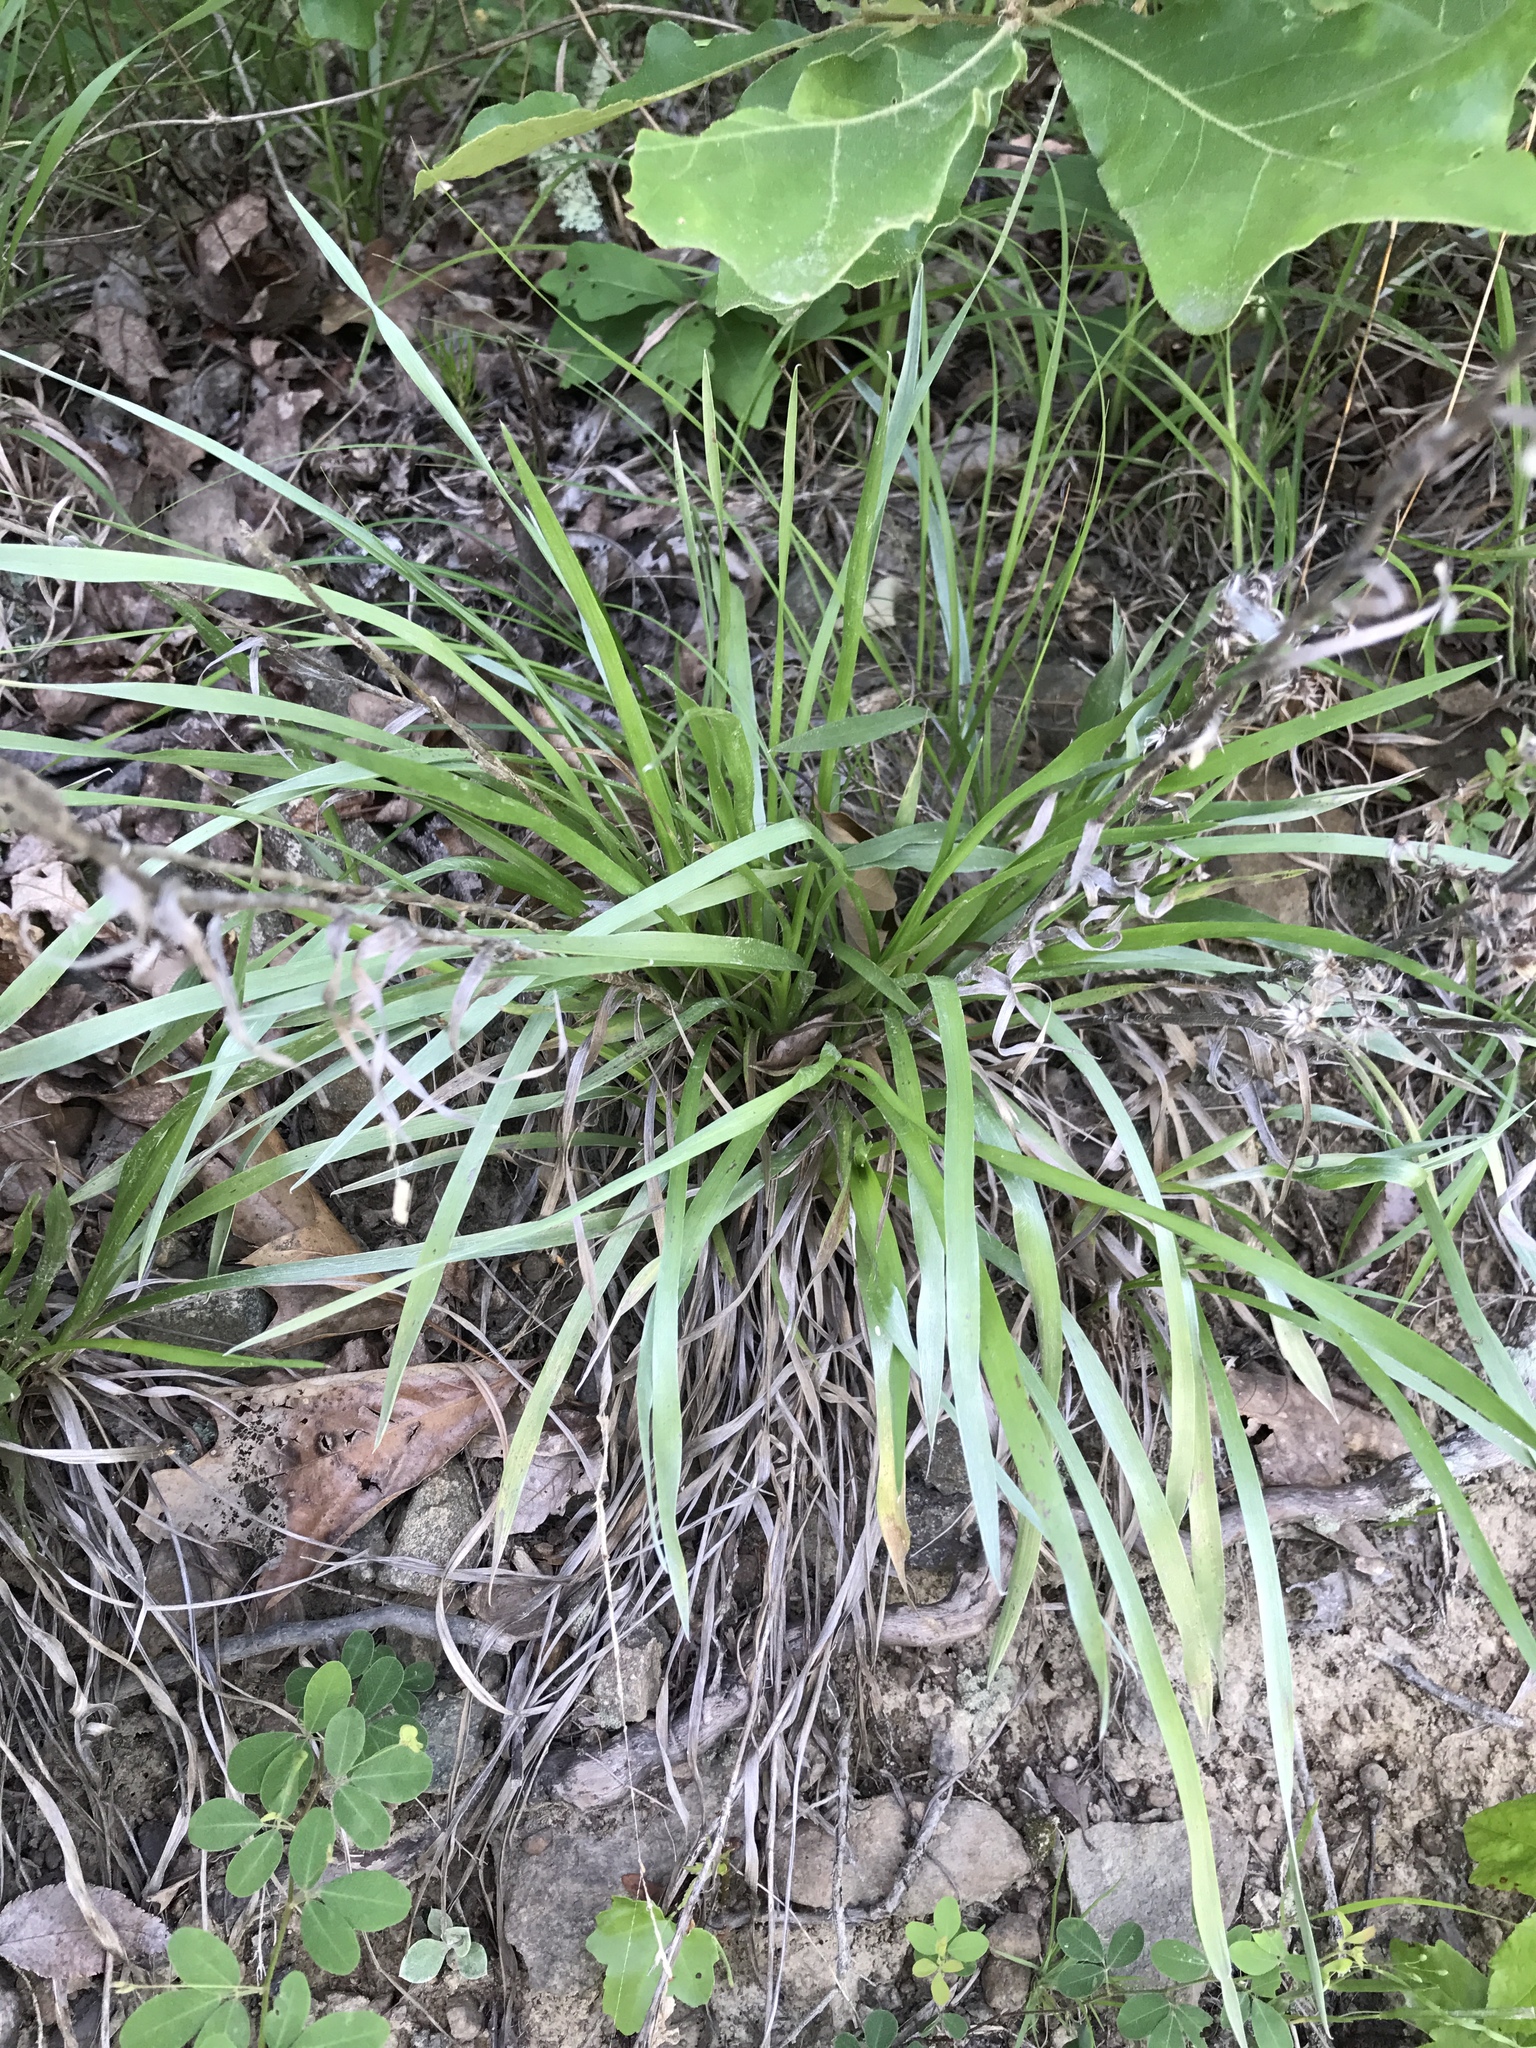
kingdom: Plantae
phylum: Tracheophyta
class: Magnoliopsida
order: Asterales
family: Asteraceae
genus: Pityopsis
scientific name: Pityopsis aspera
